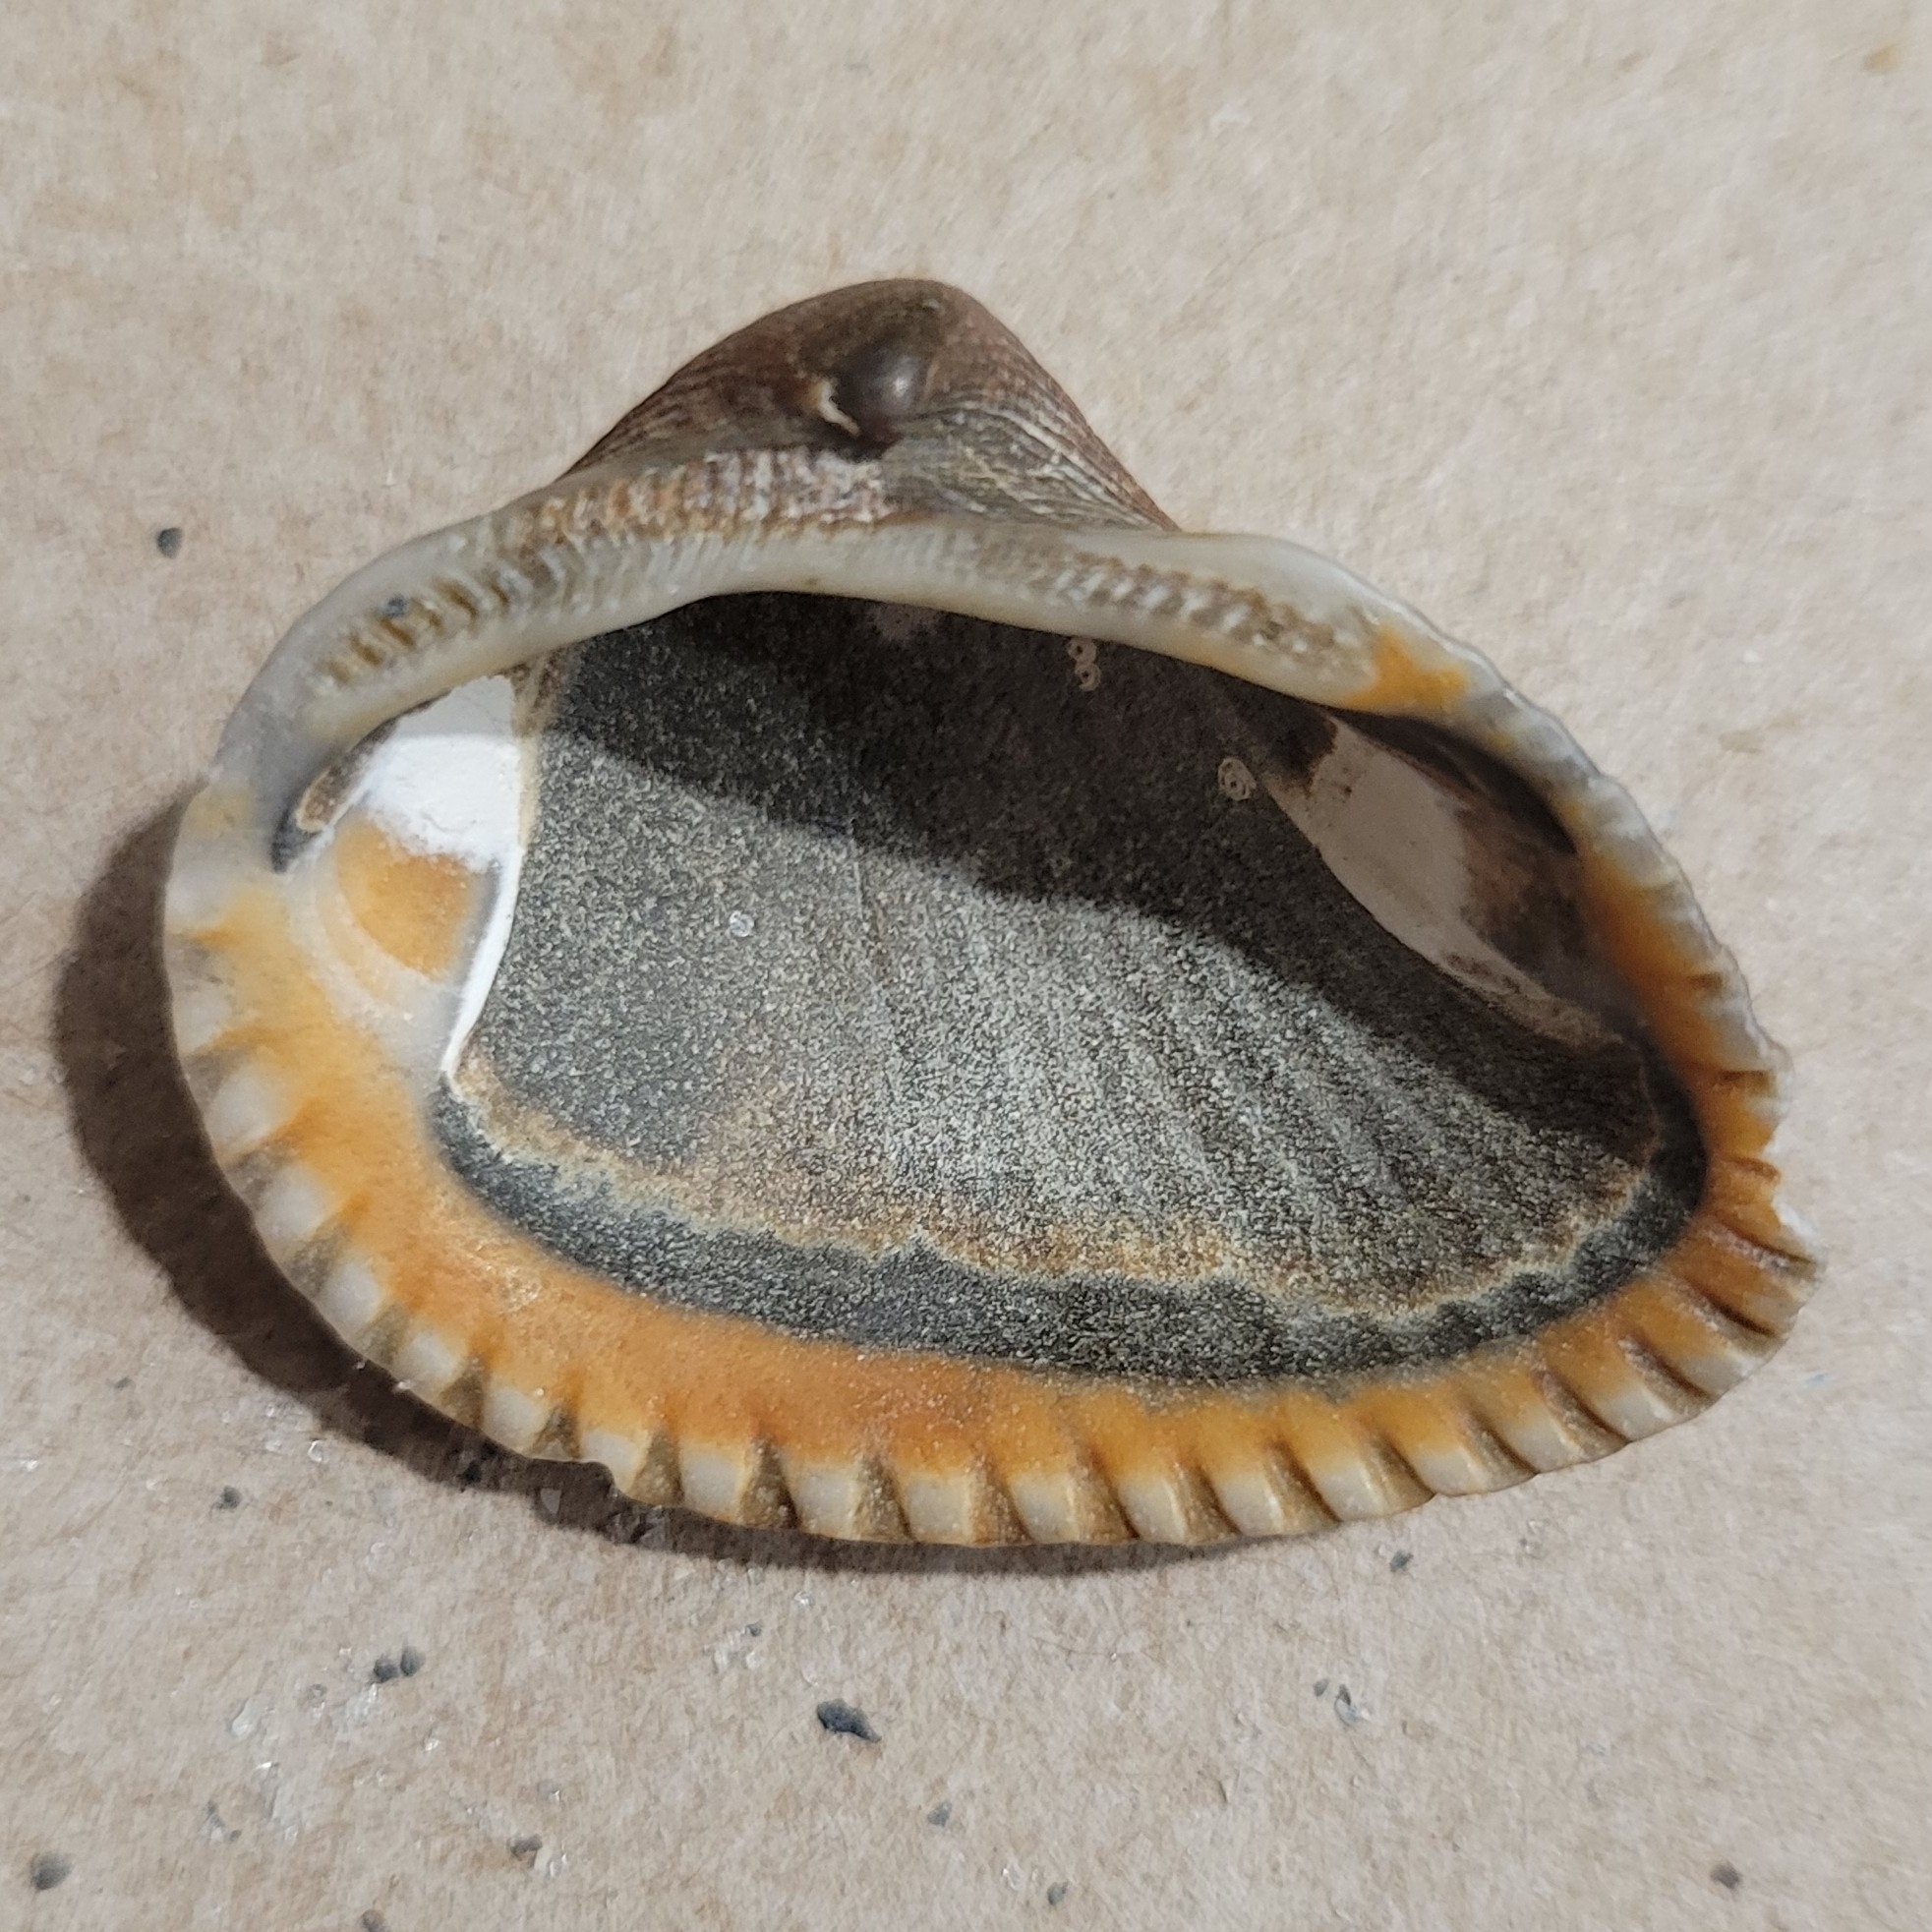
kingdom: Animalia
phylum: Mollusca
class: Bivalvia
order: Arcida
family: Noetiidae
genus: Noetia
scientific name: Noetia ponderosa
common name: Ponderous ark
